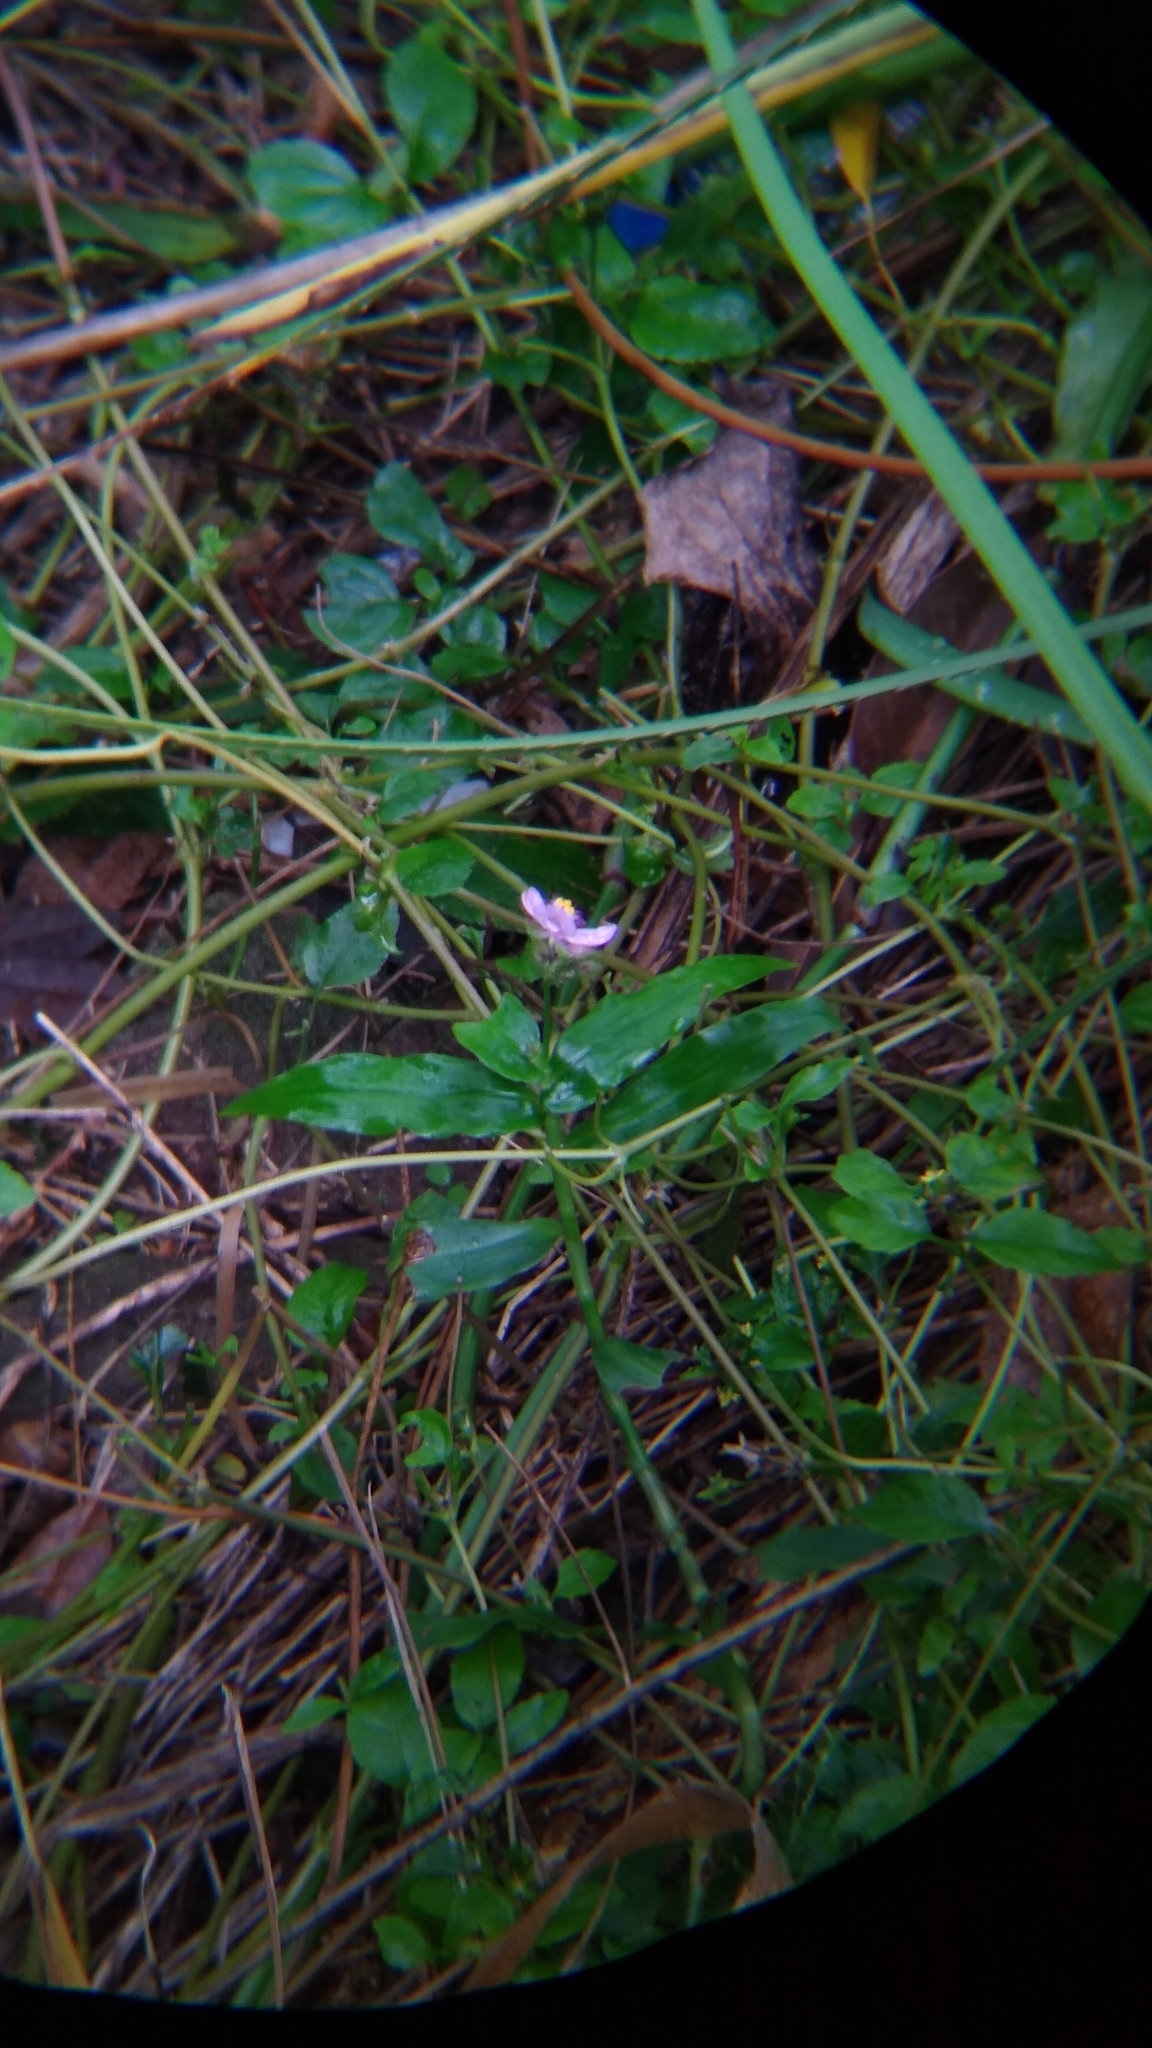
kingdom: Plantae
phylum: Tracheophyta
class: Liliopsida
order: Commelinales
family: Commelinaceae
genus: Callisia
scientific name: Callisia diuretica
